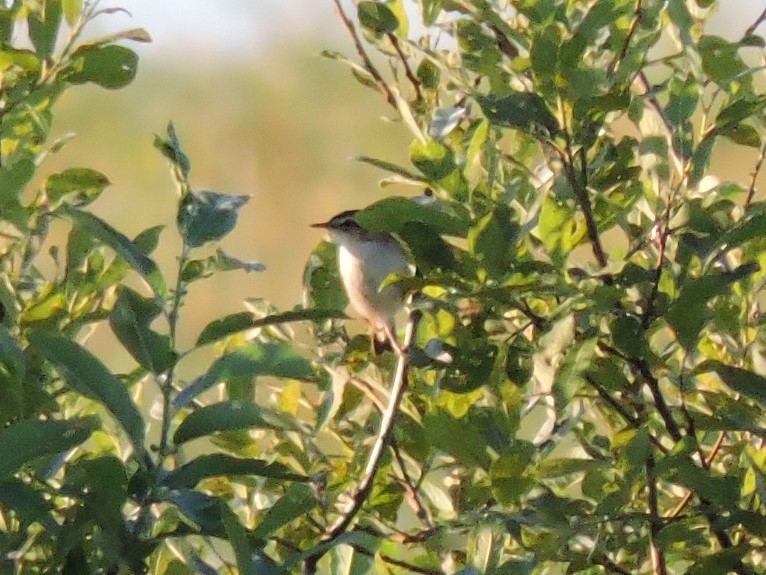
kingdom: Animalia
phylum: Chordata
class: Aves
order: Passeriformes
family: Acrocephalidae
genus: Acrocephalus
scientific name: Acrocephalus schoenobaenus
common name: Sedge warbler
